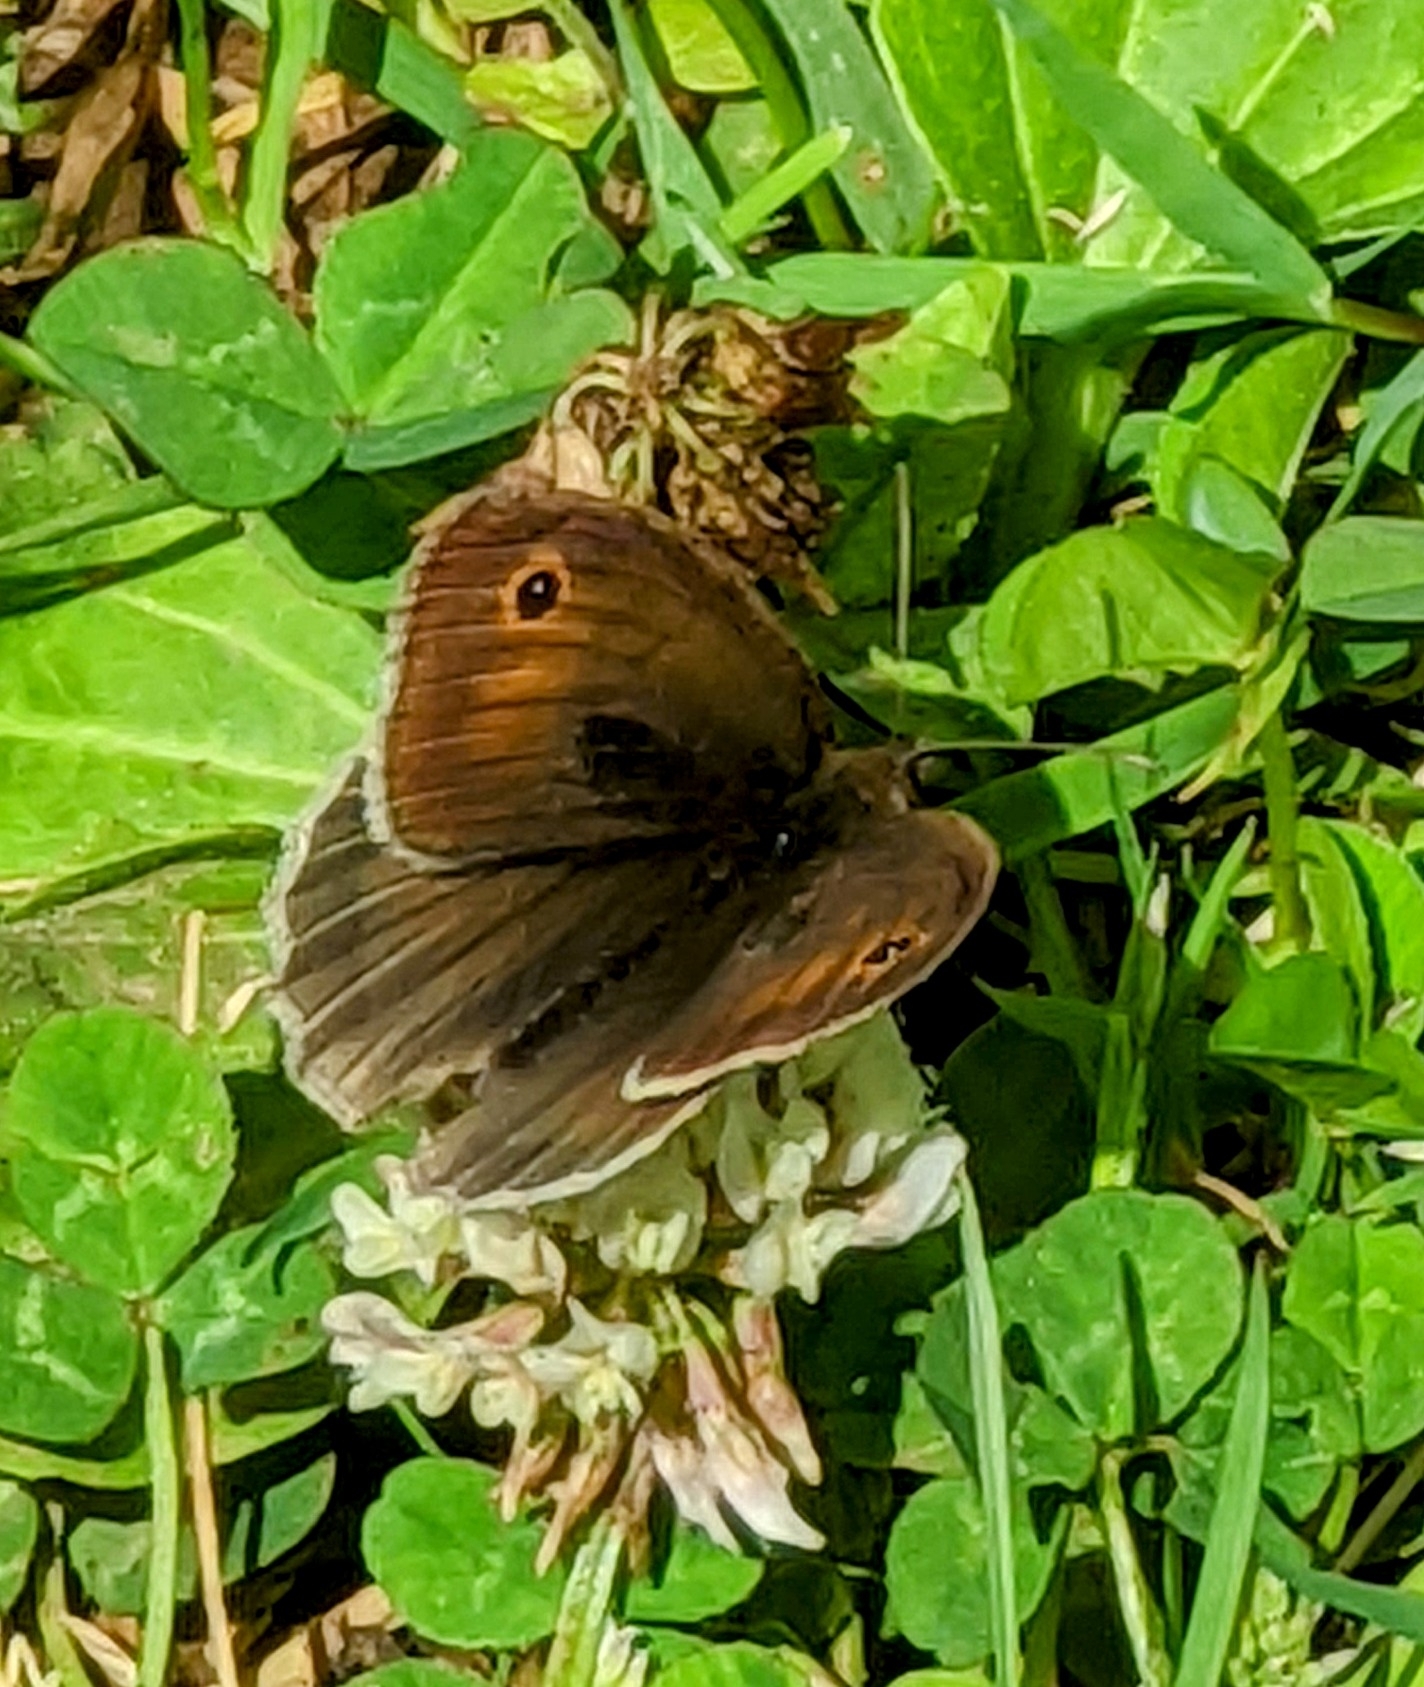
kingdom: Animalia
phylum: Arthropoda
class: Insecta
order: Lepidoptera
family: Nymphalidae
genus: Maniola
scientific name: Maniola jurtina
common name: Meadow brown
